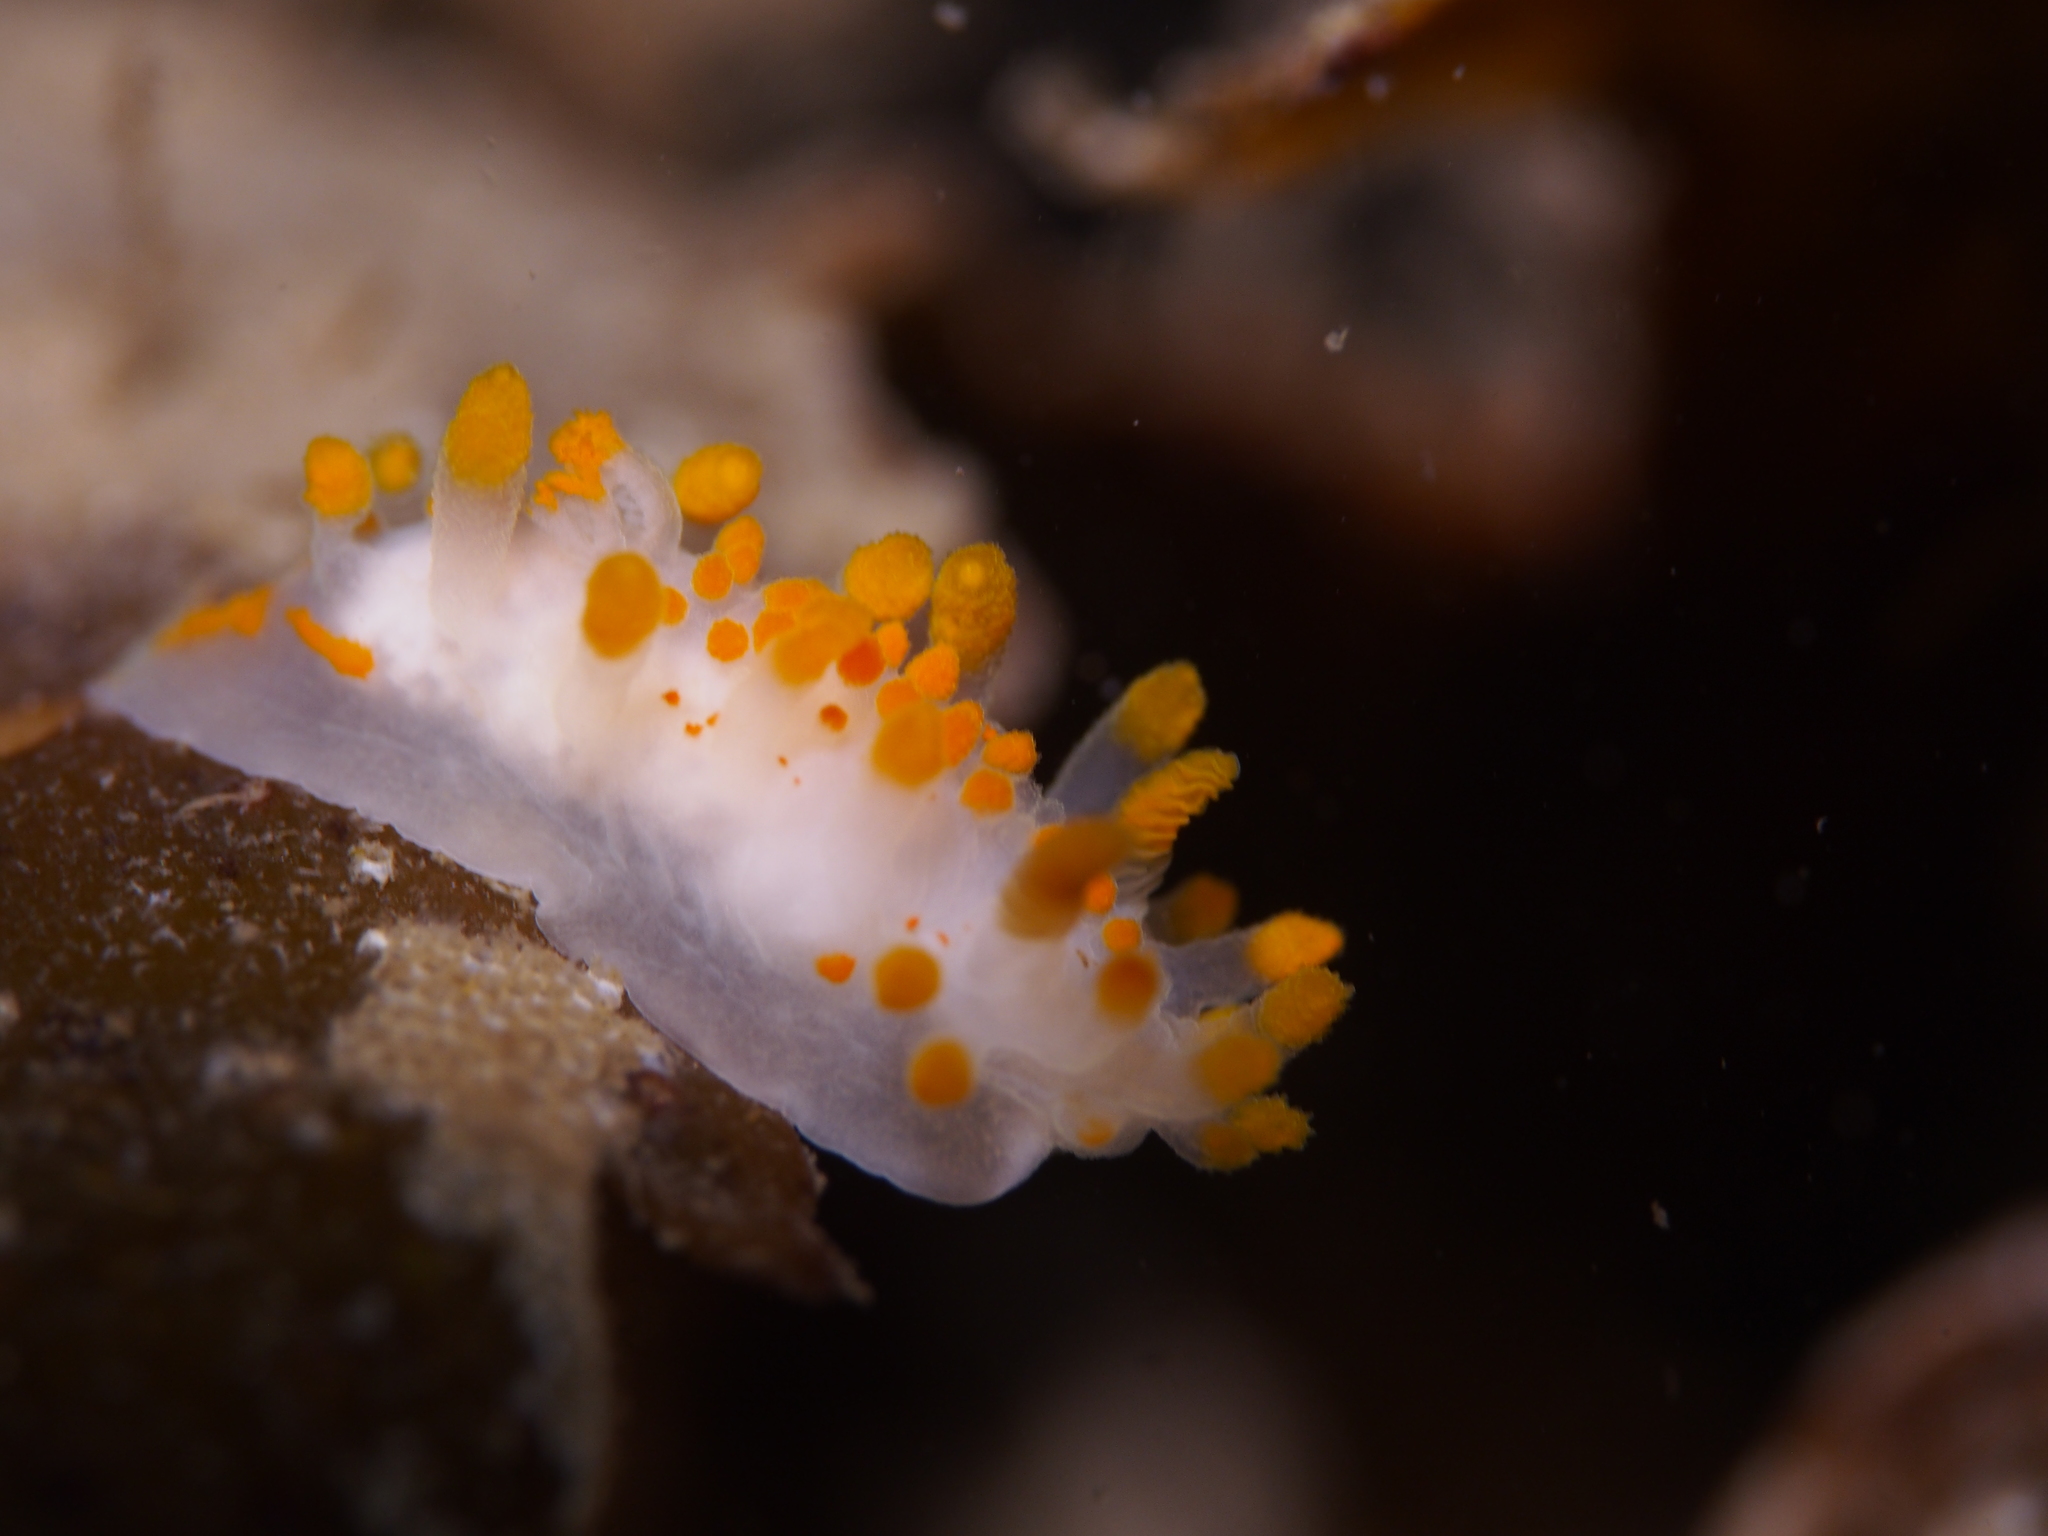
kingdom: Animalia
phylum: Mollusca
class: Gastropoda
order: Nudibranchia
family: Polyceridae
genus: Limacia
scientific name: Limacia clavigera
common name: Orange-clubbed sea slug
